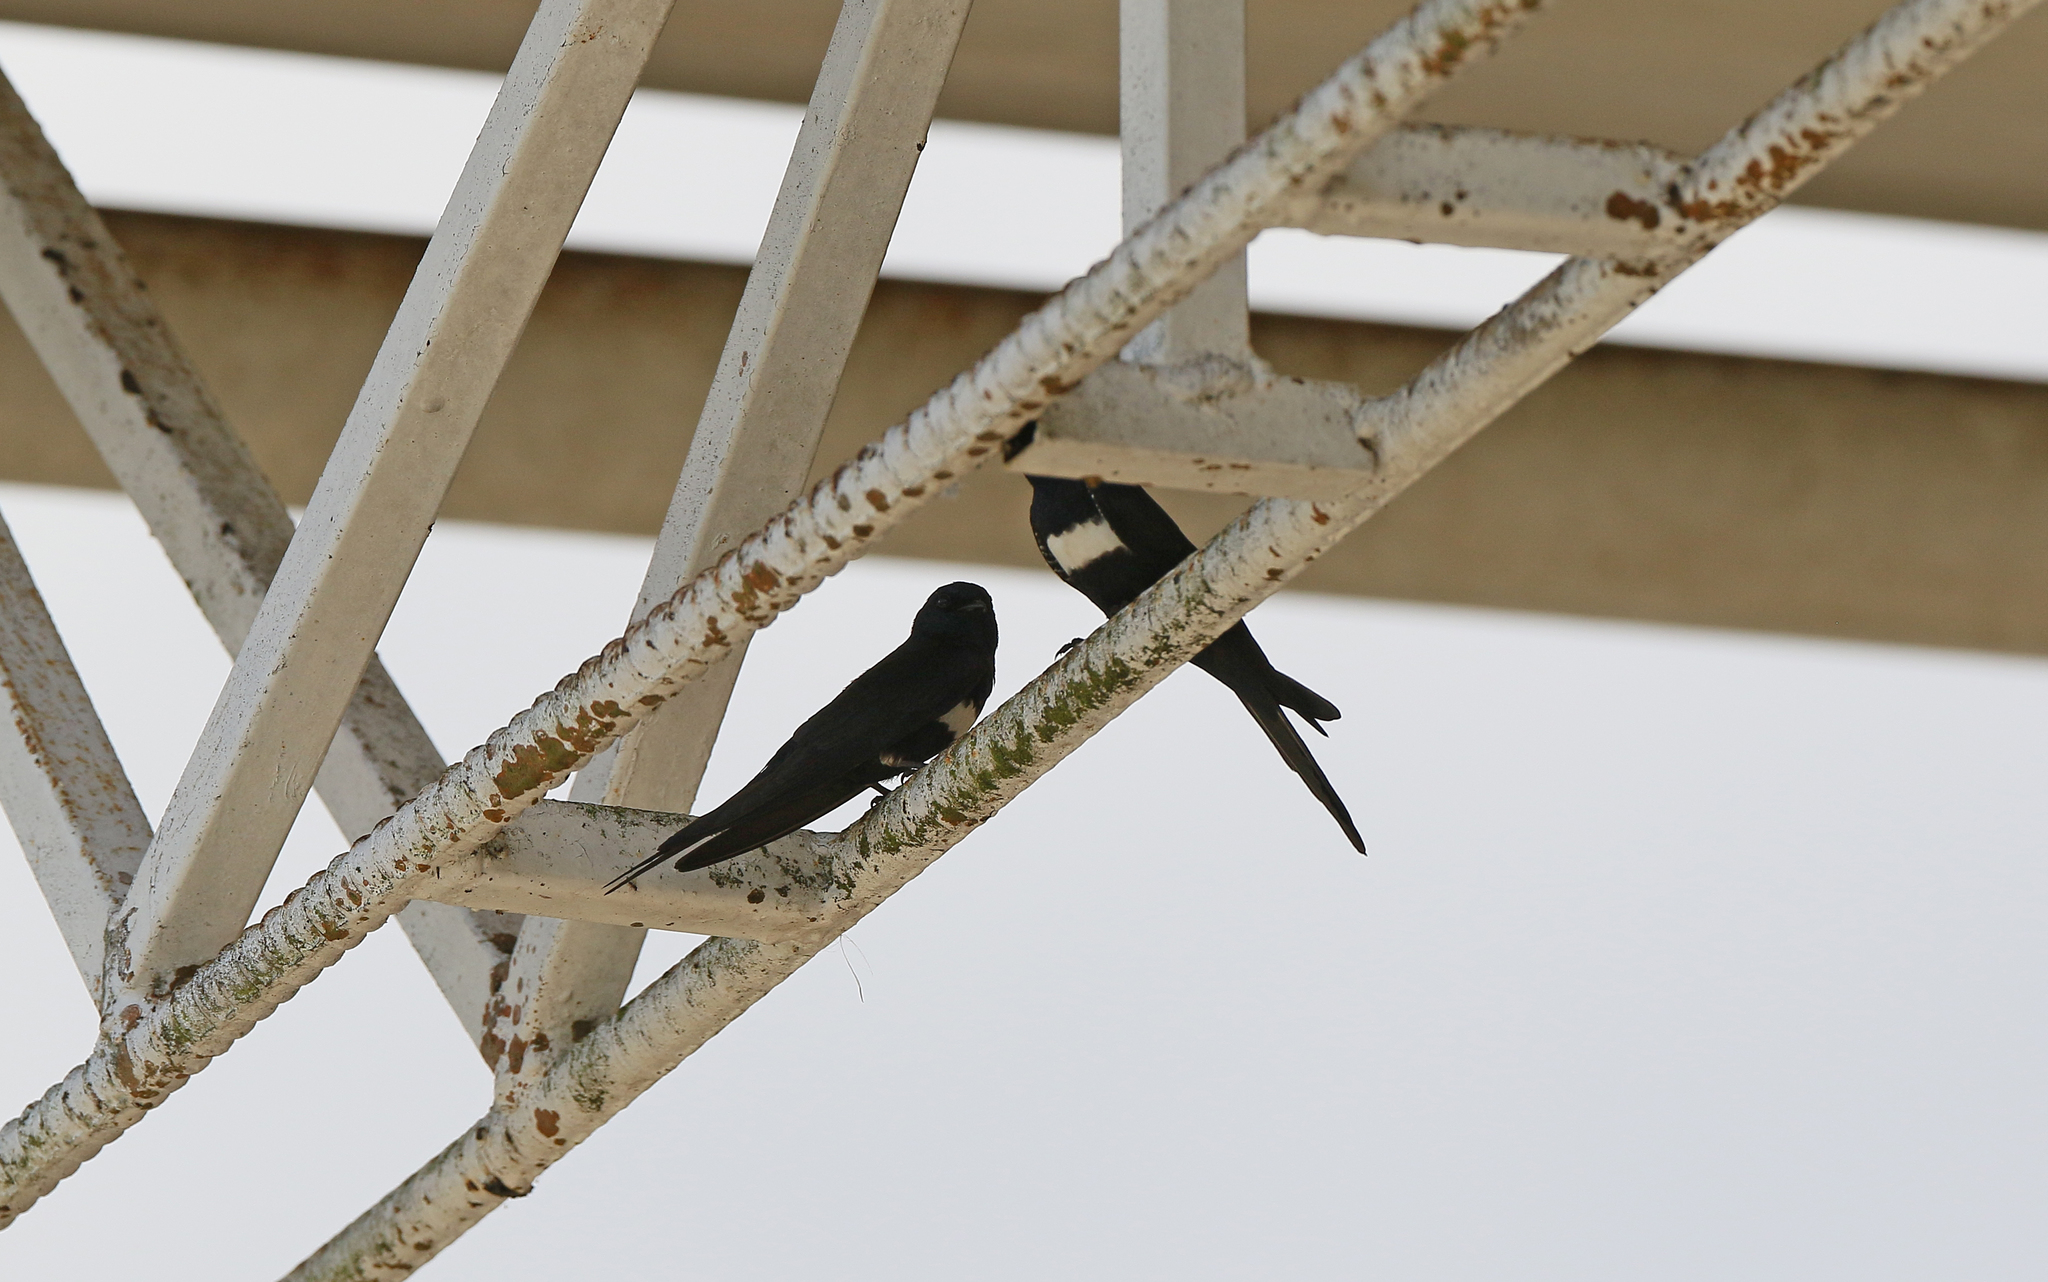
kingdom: Animalia
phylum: Chordata
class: Aves
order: Passeriformes
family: Hirundinidae
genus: Atticora
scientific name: Atticora fasciata
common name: White-banded swallow
